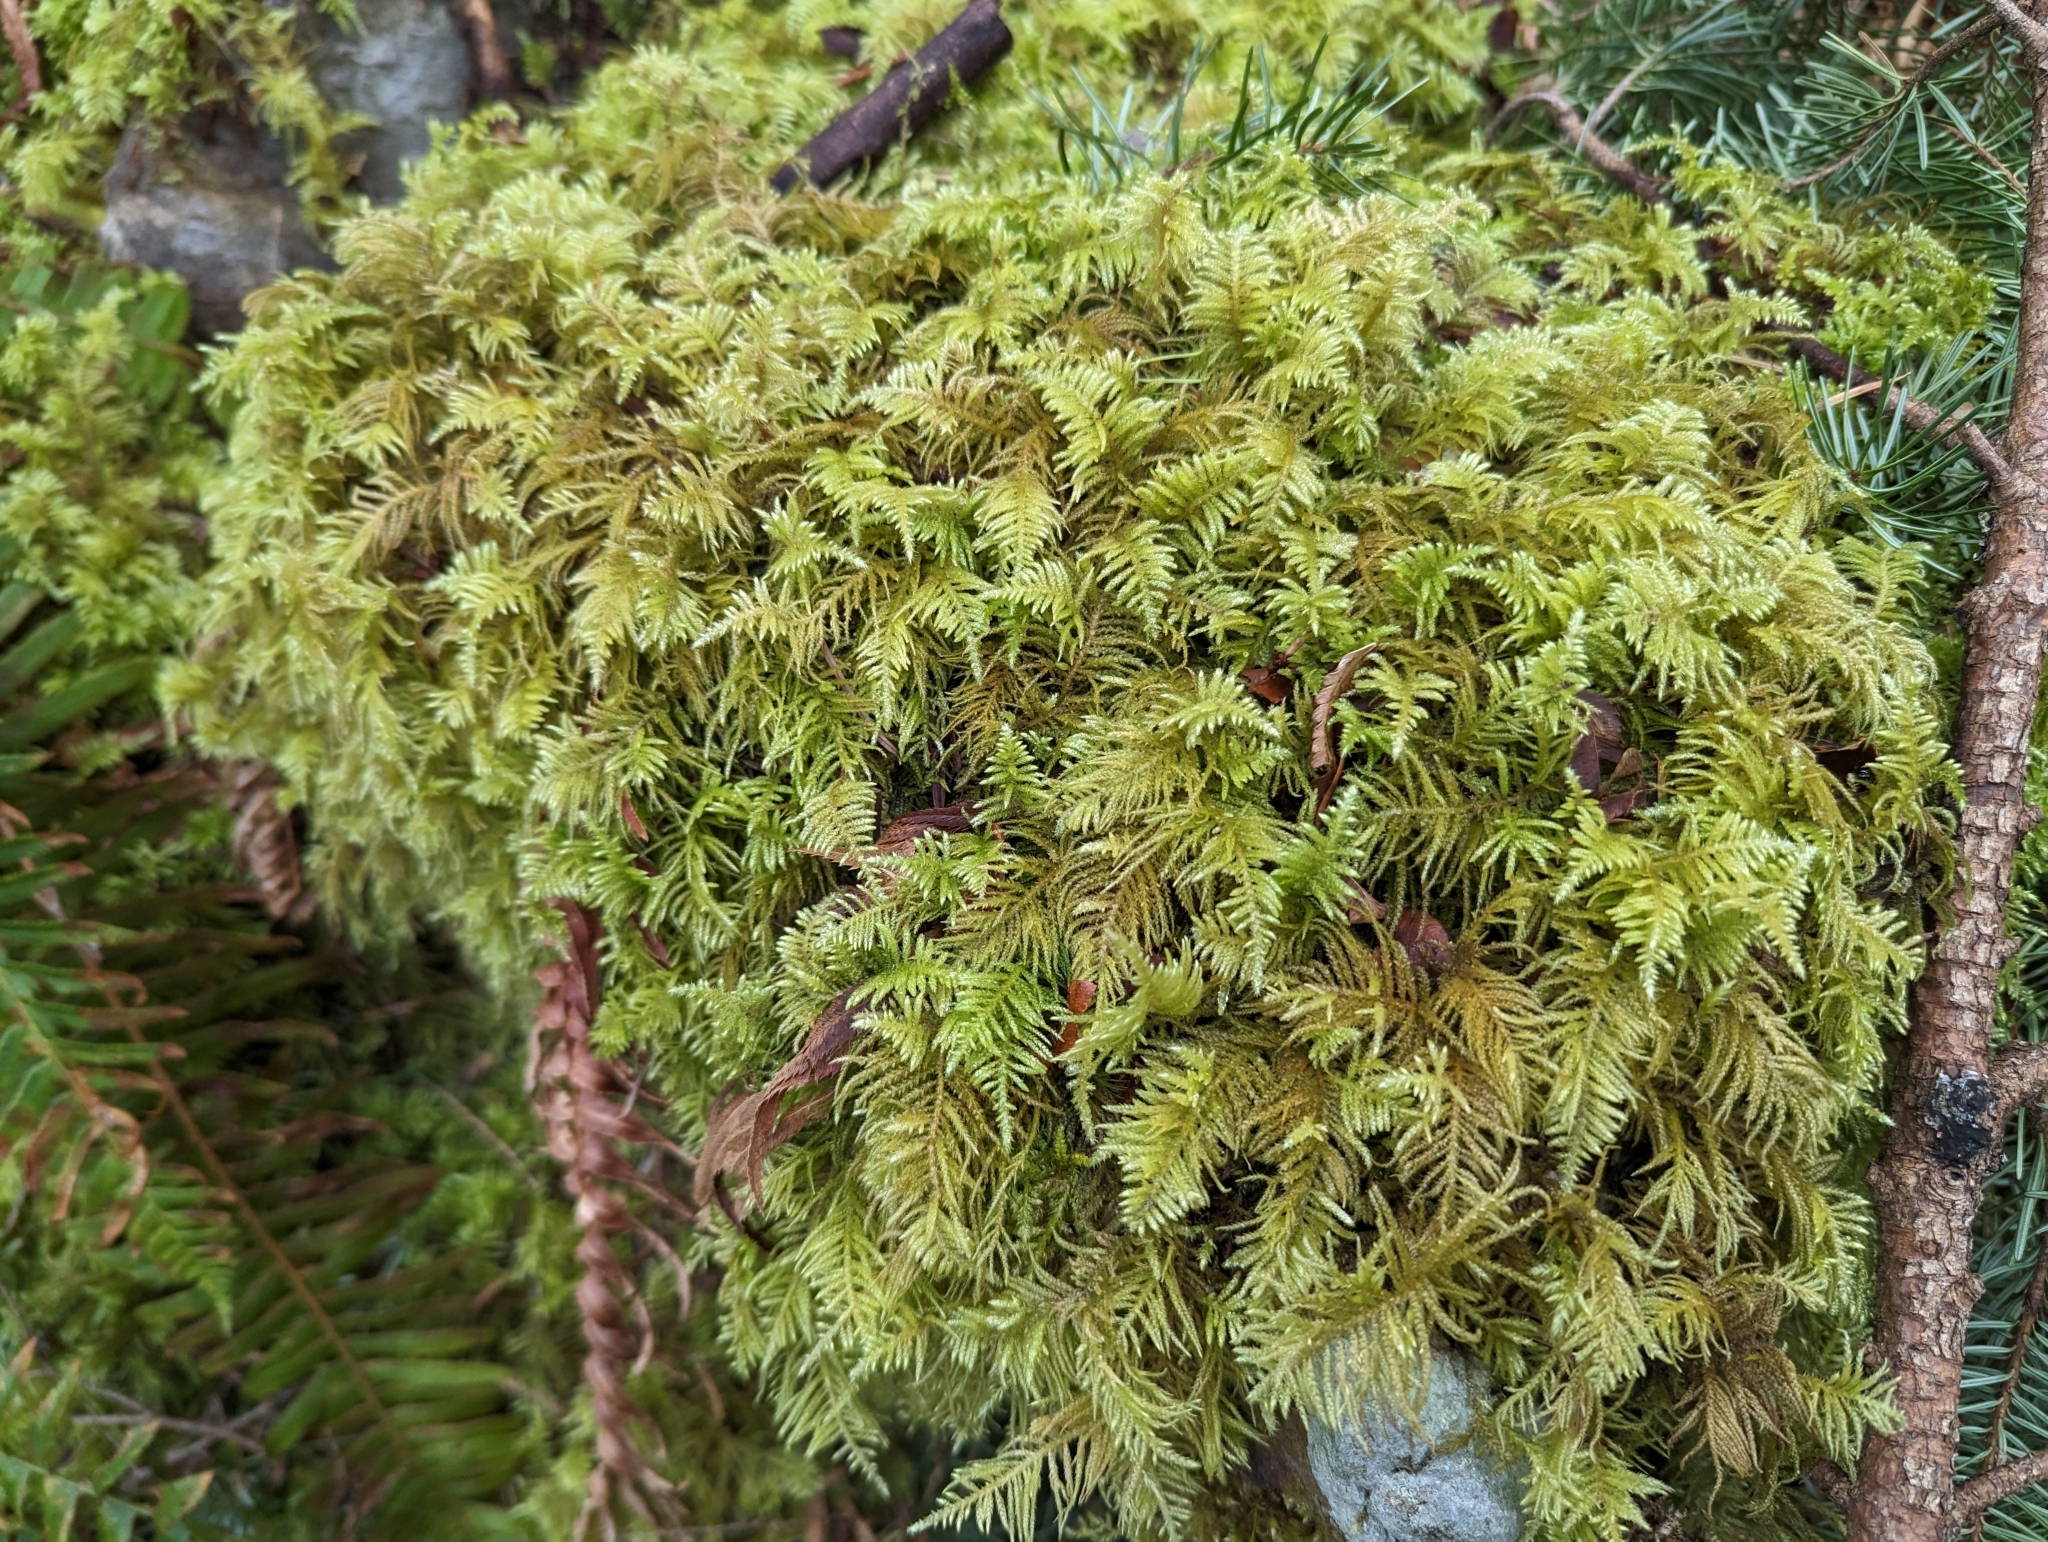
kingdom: Plantae
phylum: Bryophyta
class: Bryopsida
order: Hypnales
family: Brachytheciaceae
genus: Kindbergia
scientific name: Kindbergia oregana
